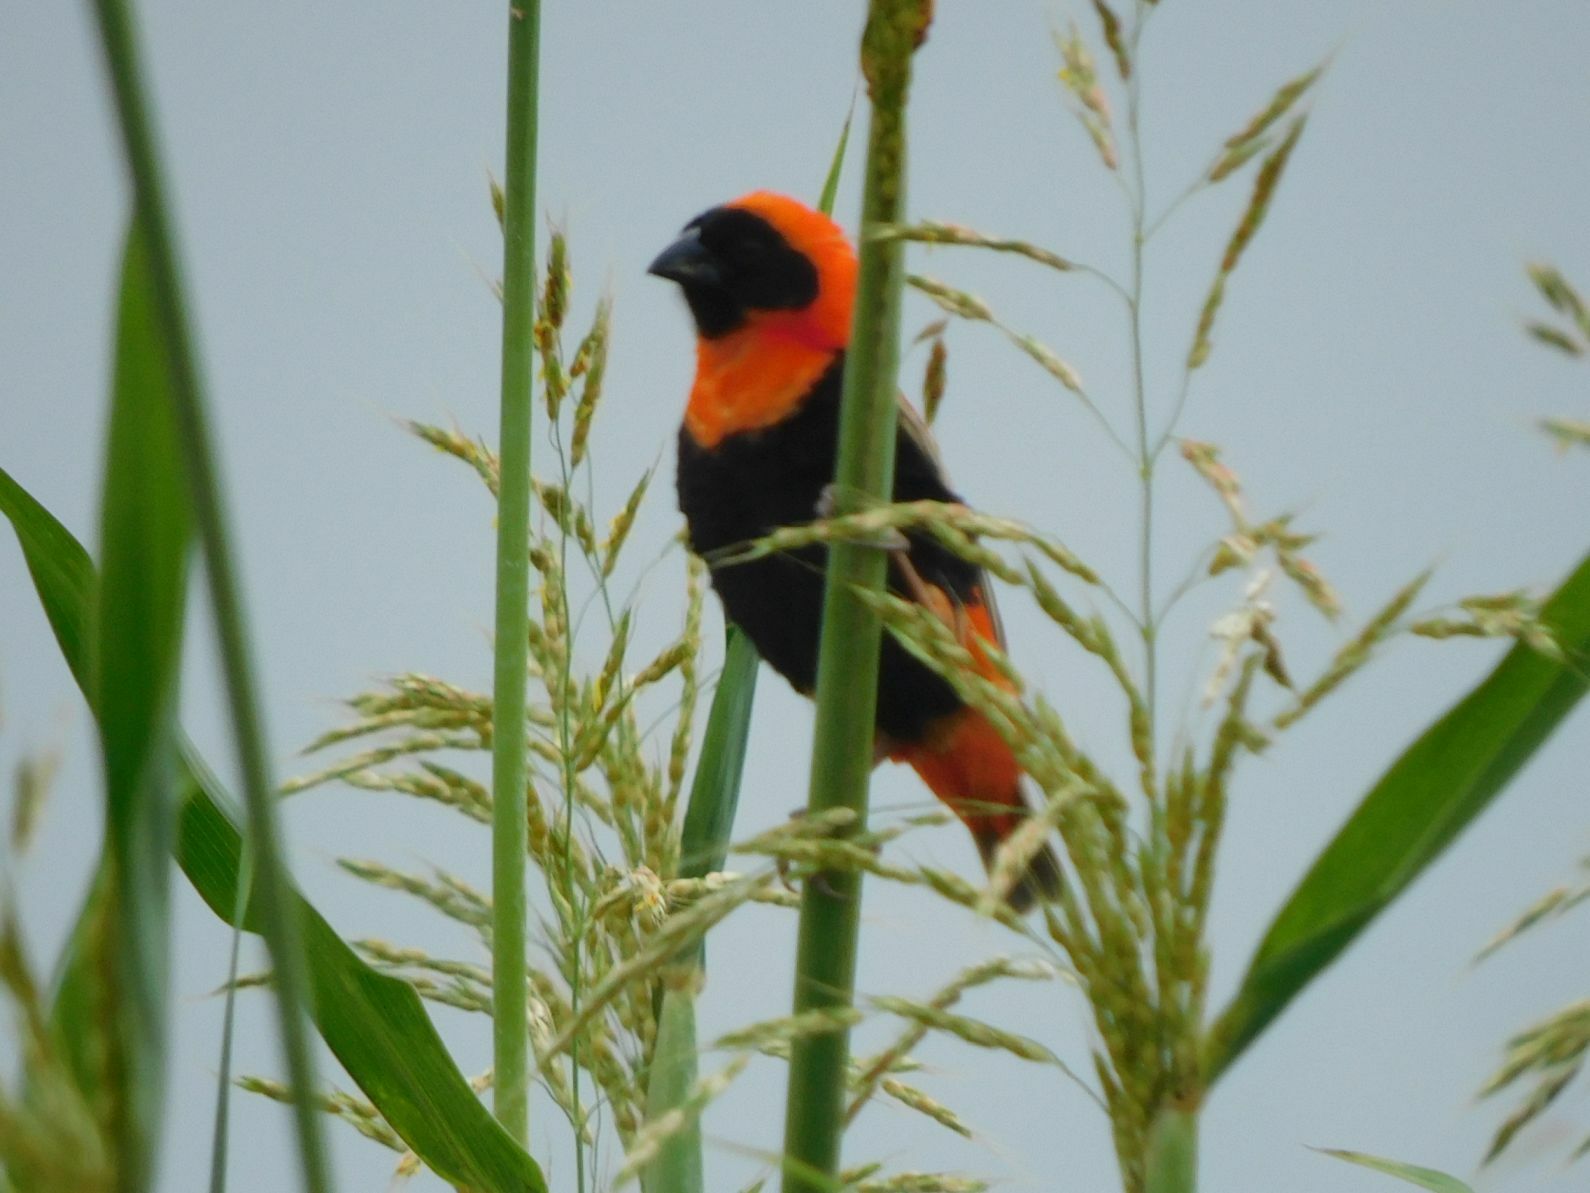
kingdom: Animalia
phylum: Chordata
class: Aves
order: Passeriformes
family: Ploceidae
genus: Euplectes
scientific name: Euplectes orix
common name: Southern red bishop
